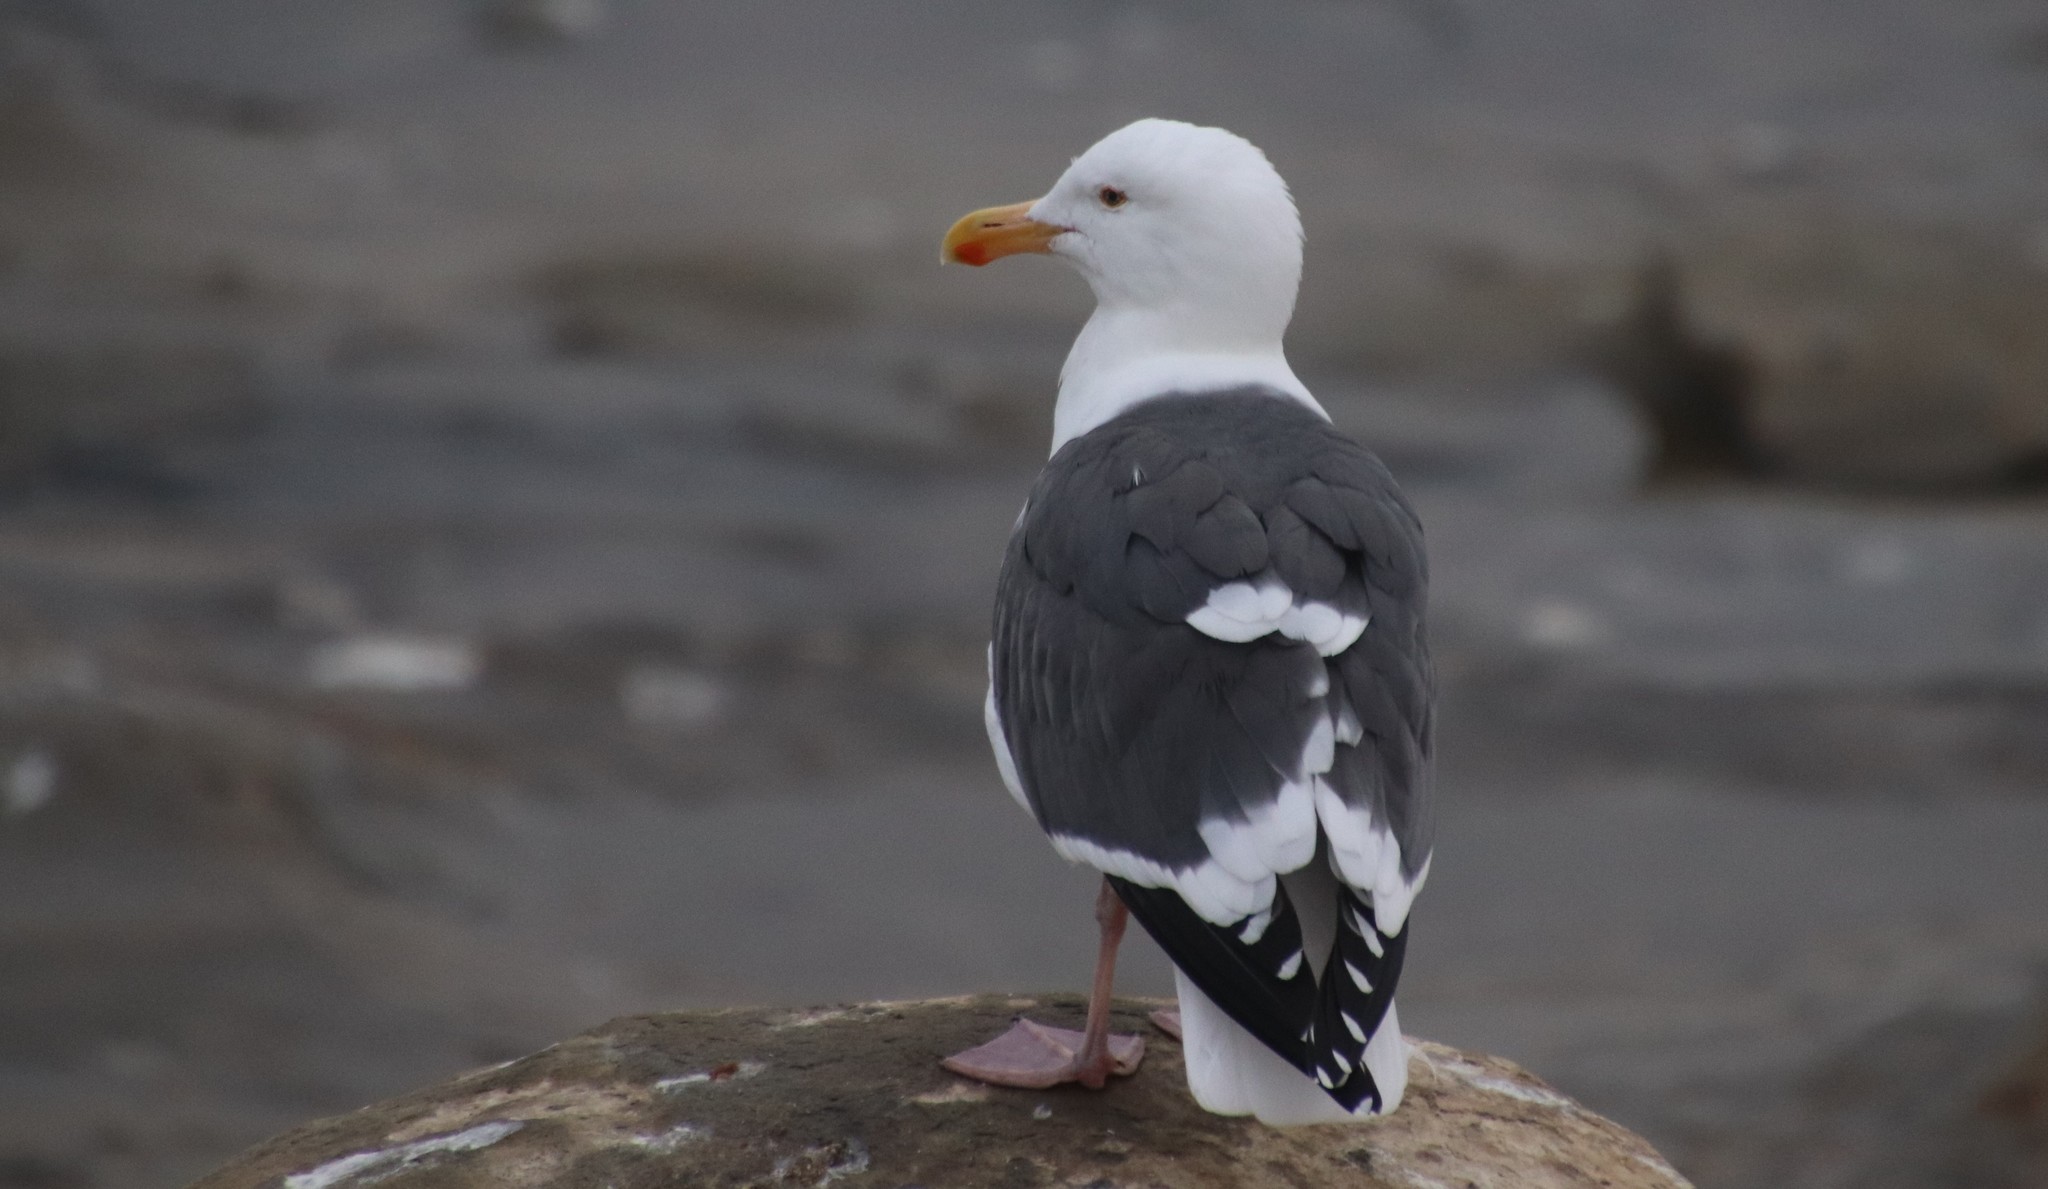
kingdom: Animalia
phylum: Chordata
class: Aves
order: Charadriiformes
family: Laridae
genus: Larus
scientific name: Larus occidentalis
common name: Western gull
